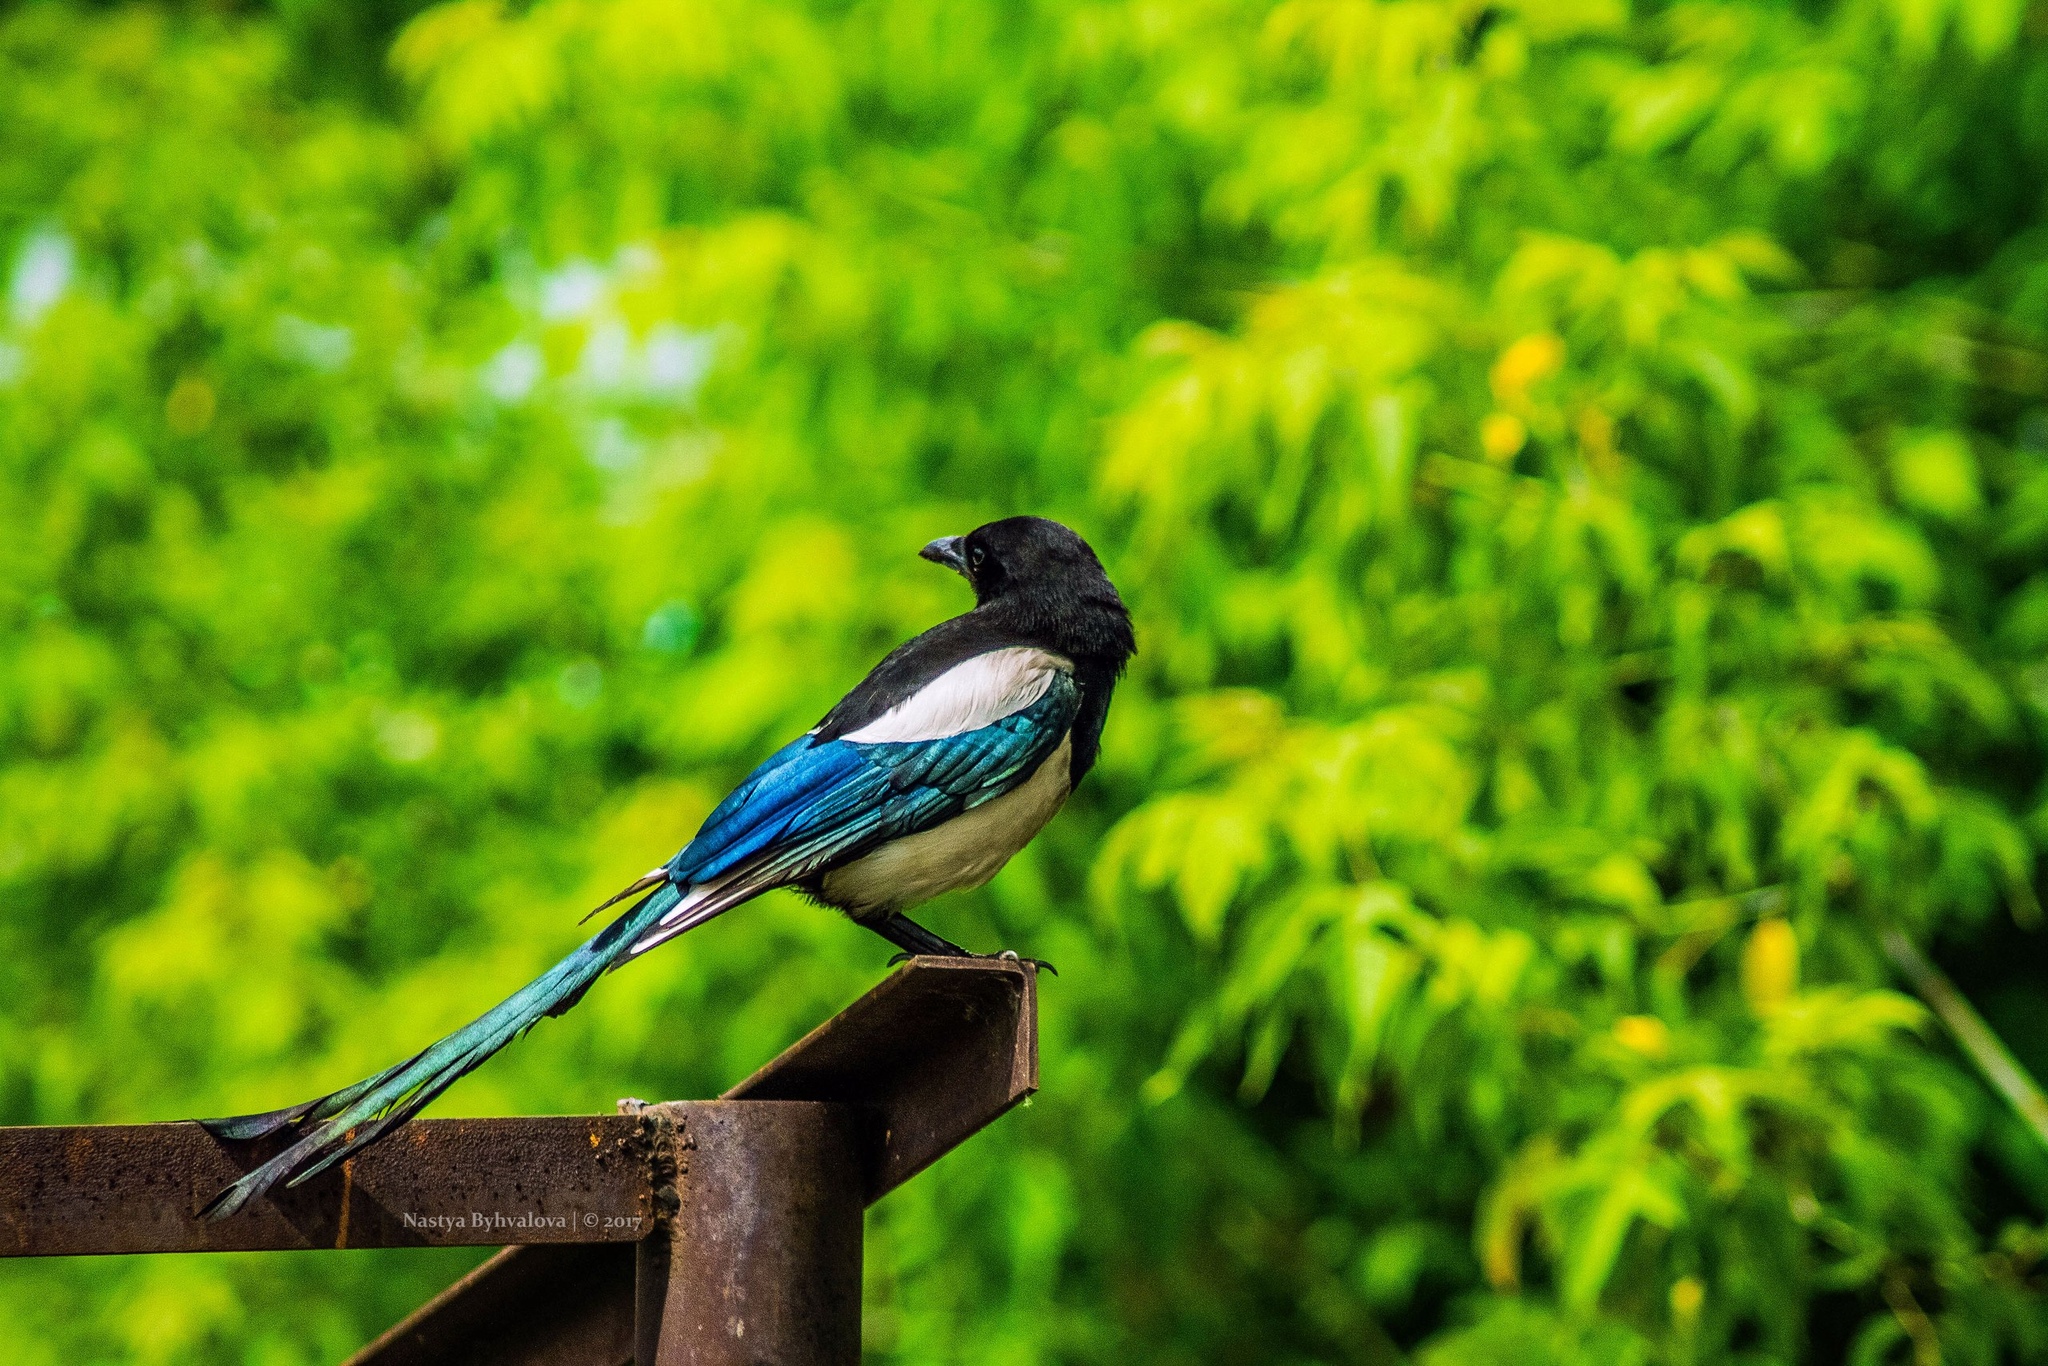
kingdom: Animalia
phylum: Chordata
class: Aves
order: Passeriformes
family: Corvidae
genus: Pica
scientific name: Pica pica
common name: Eurasian magpie
